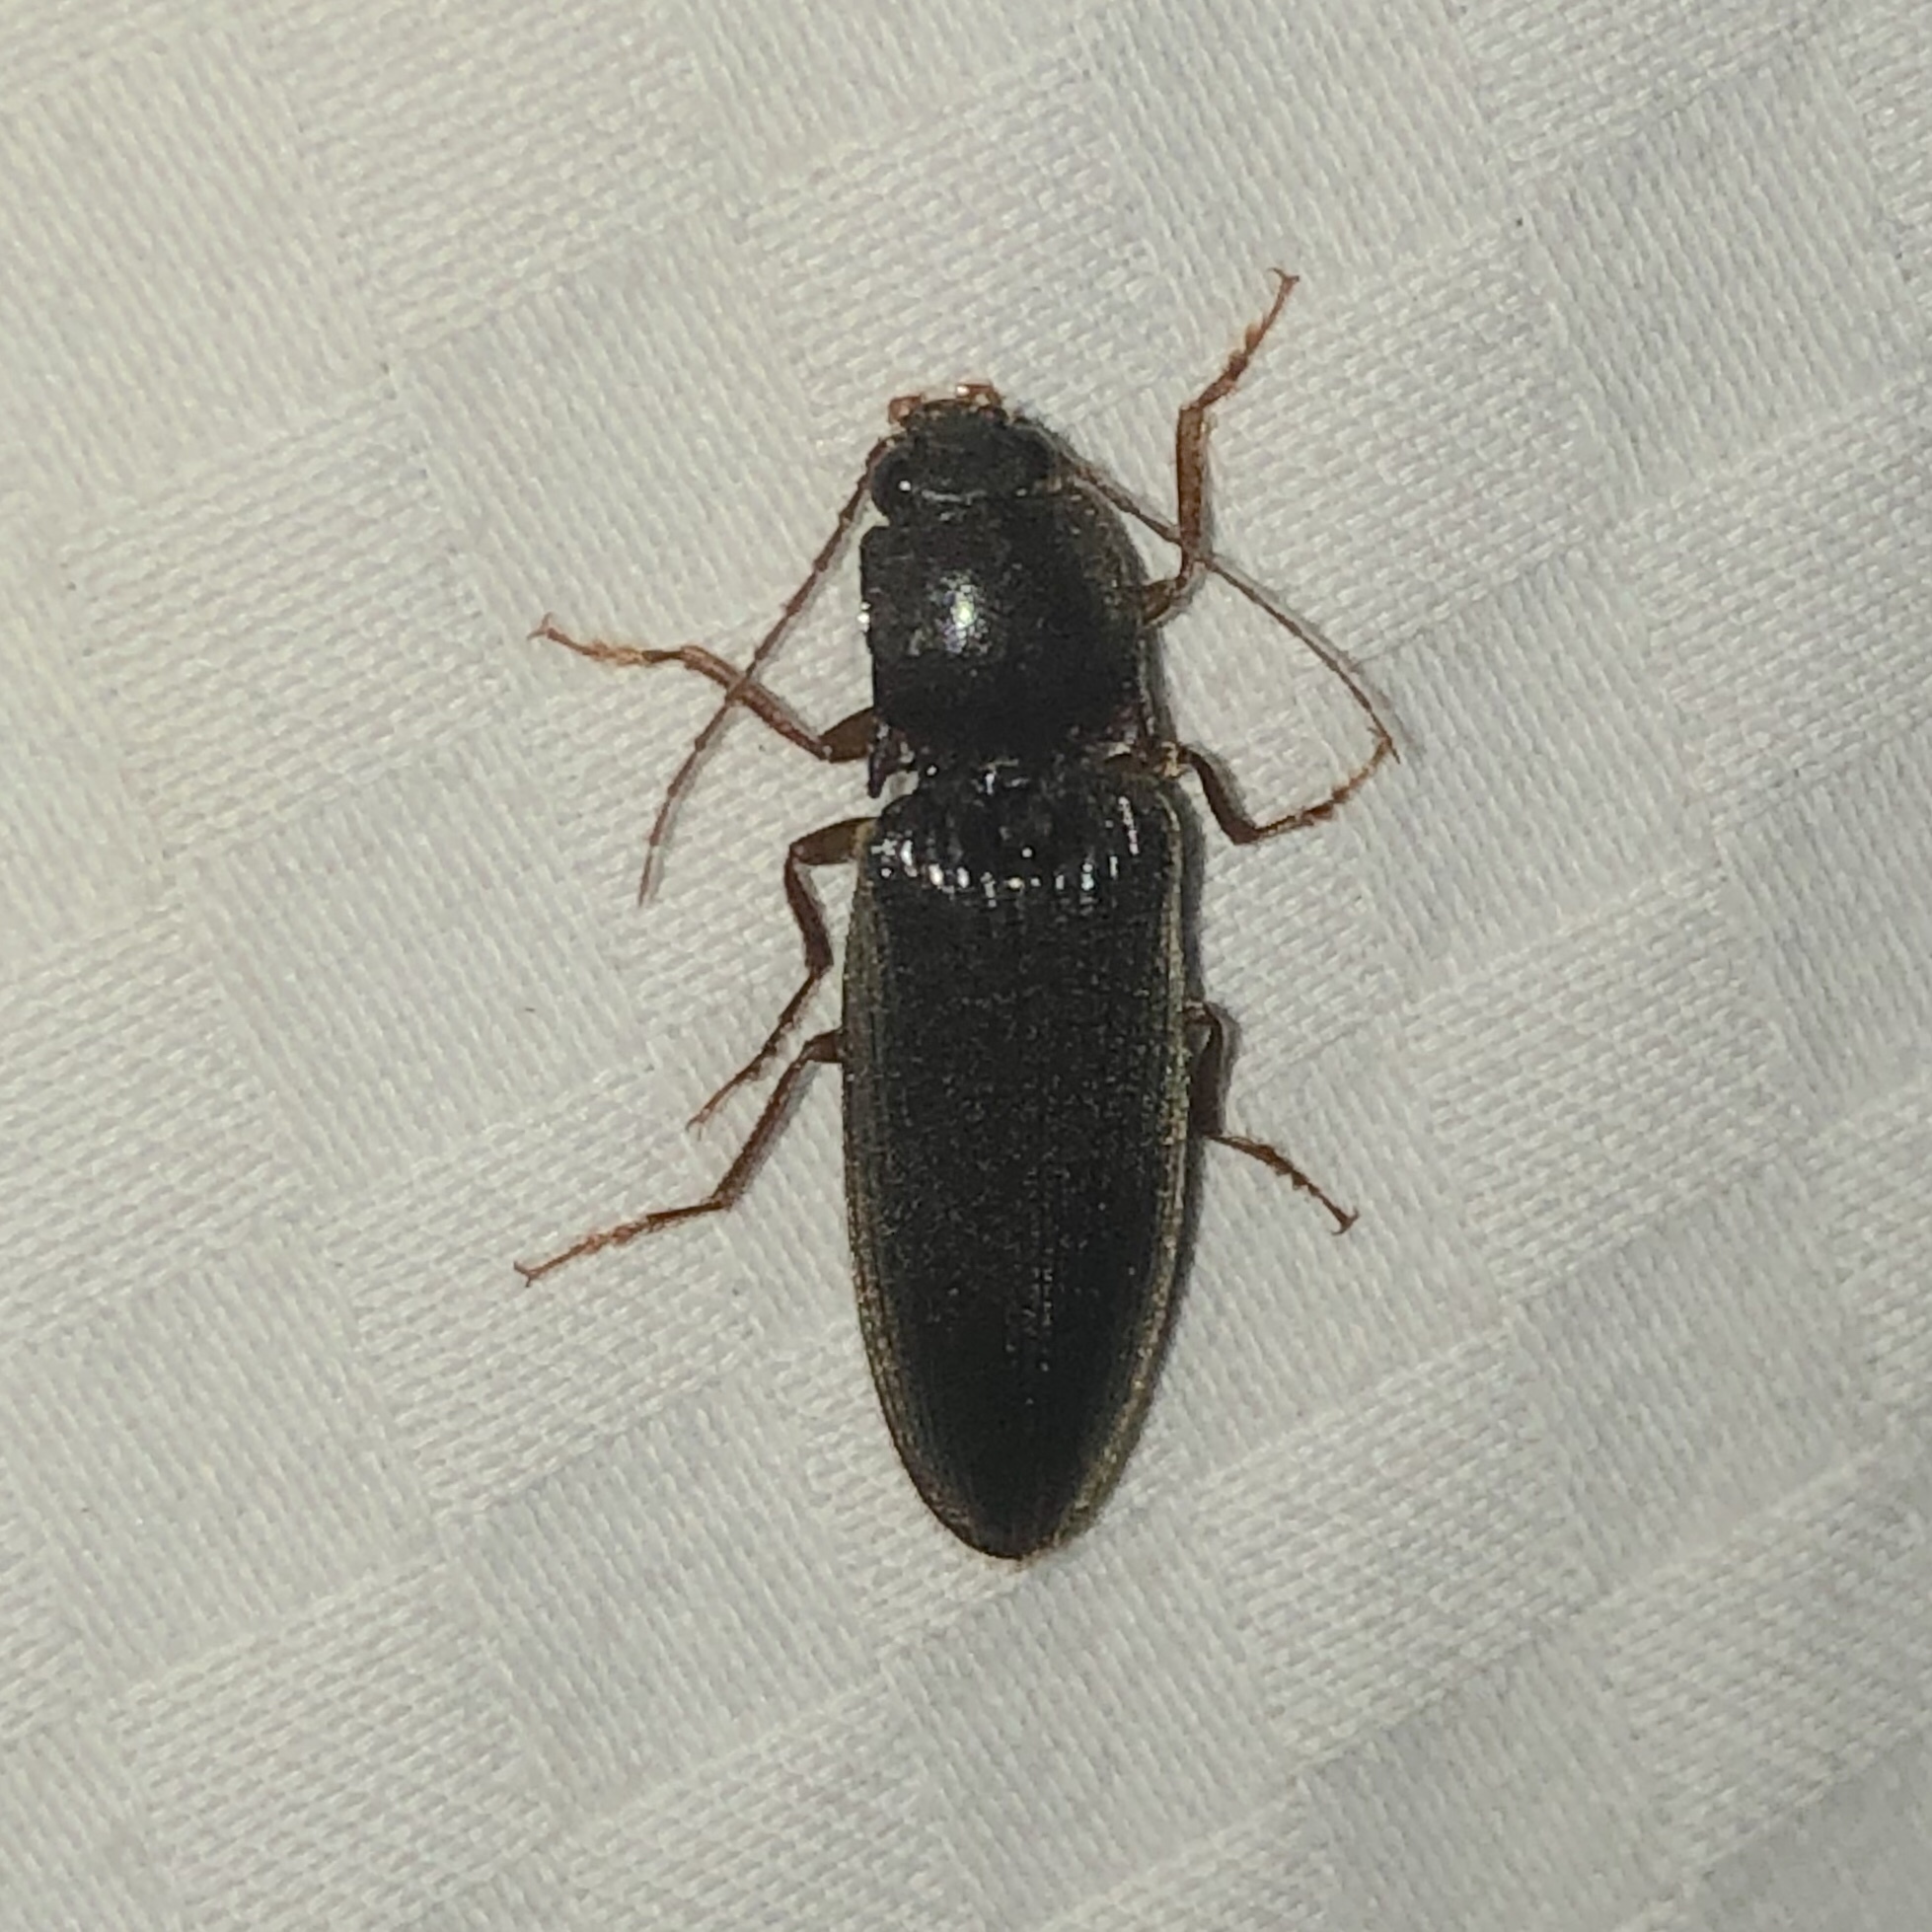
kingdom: Animalia
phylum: Arthropoda
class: Insecta
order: Coleoptera
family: Elateridae
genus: Hemicrepidius
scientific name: Hemicrepidius
